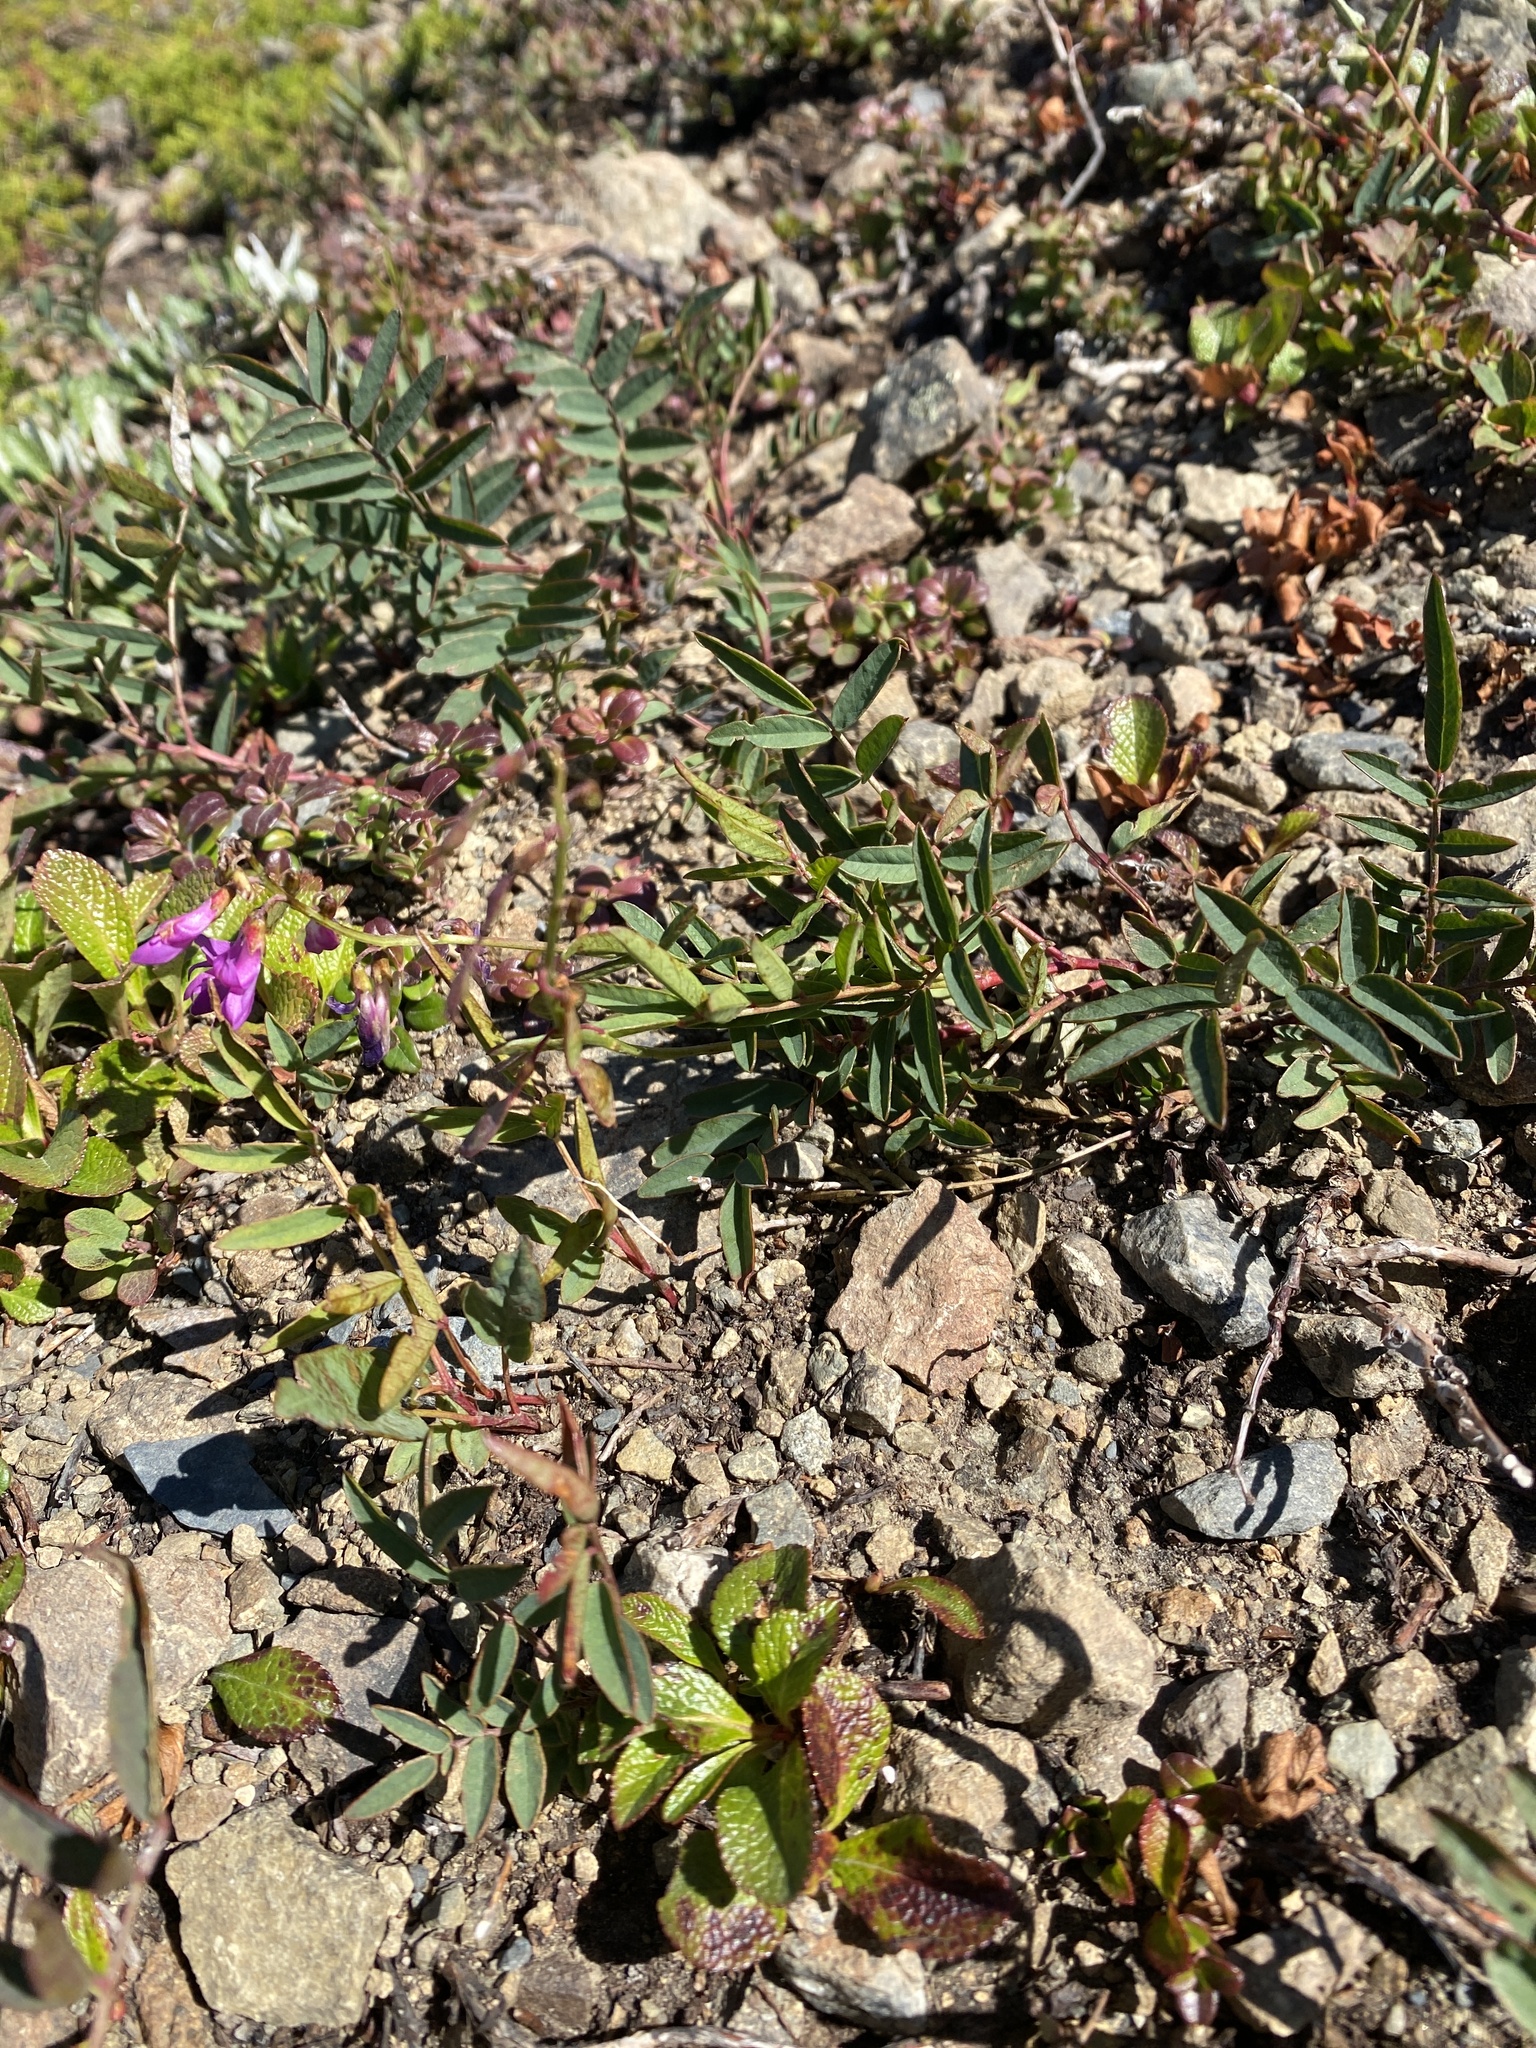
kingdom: Plantae
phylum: Tracheophyta
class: Magnoliopsida
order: Fabales
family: Fabaceae
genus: Hedysarum
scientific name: Hedysarum alpinum
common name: Alpine sweet-vetch
